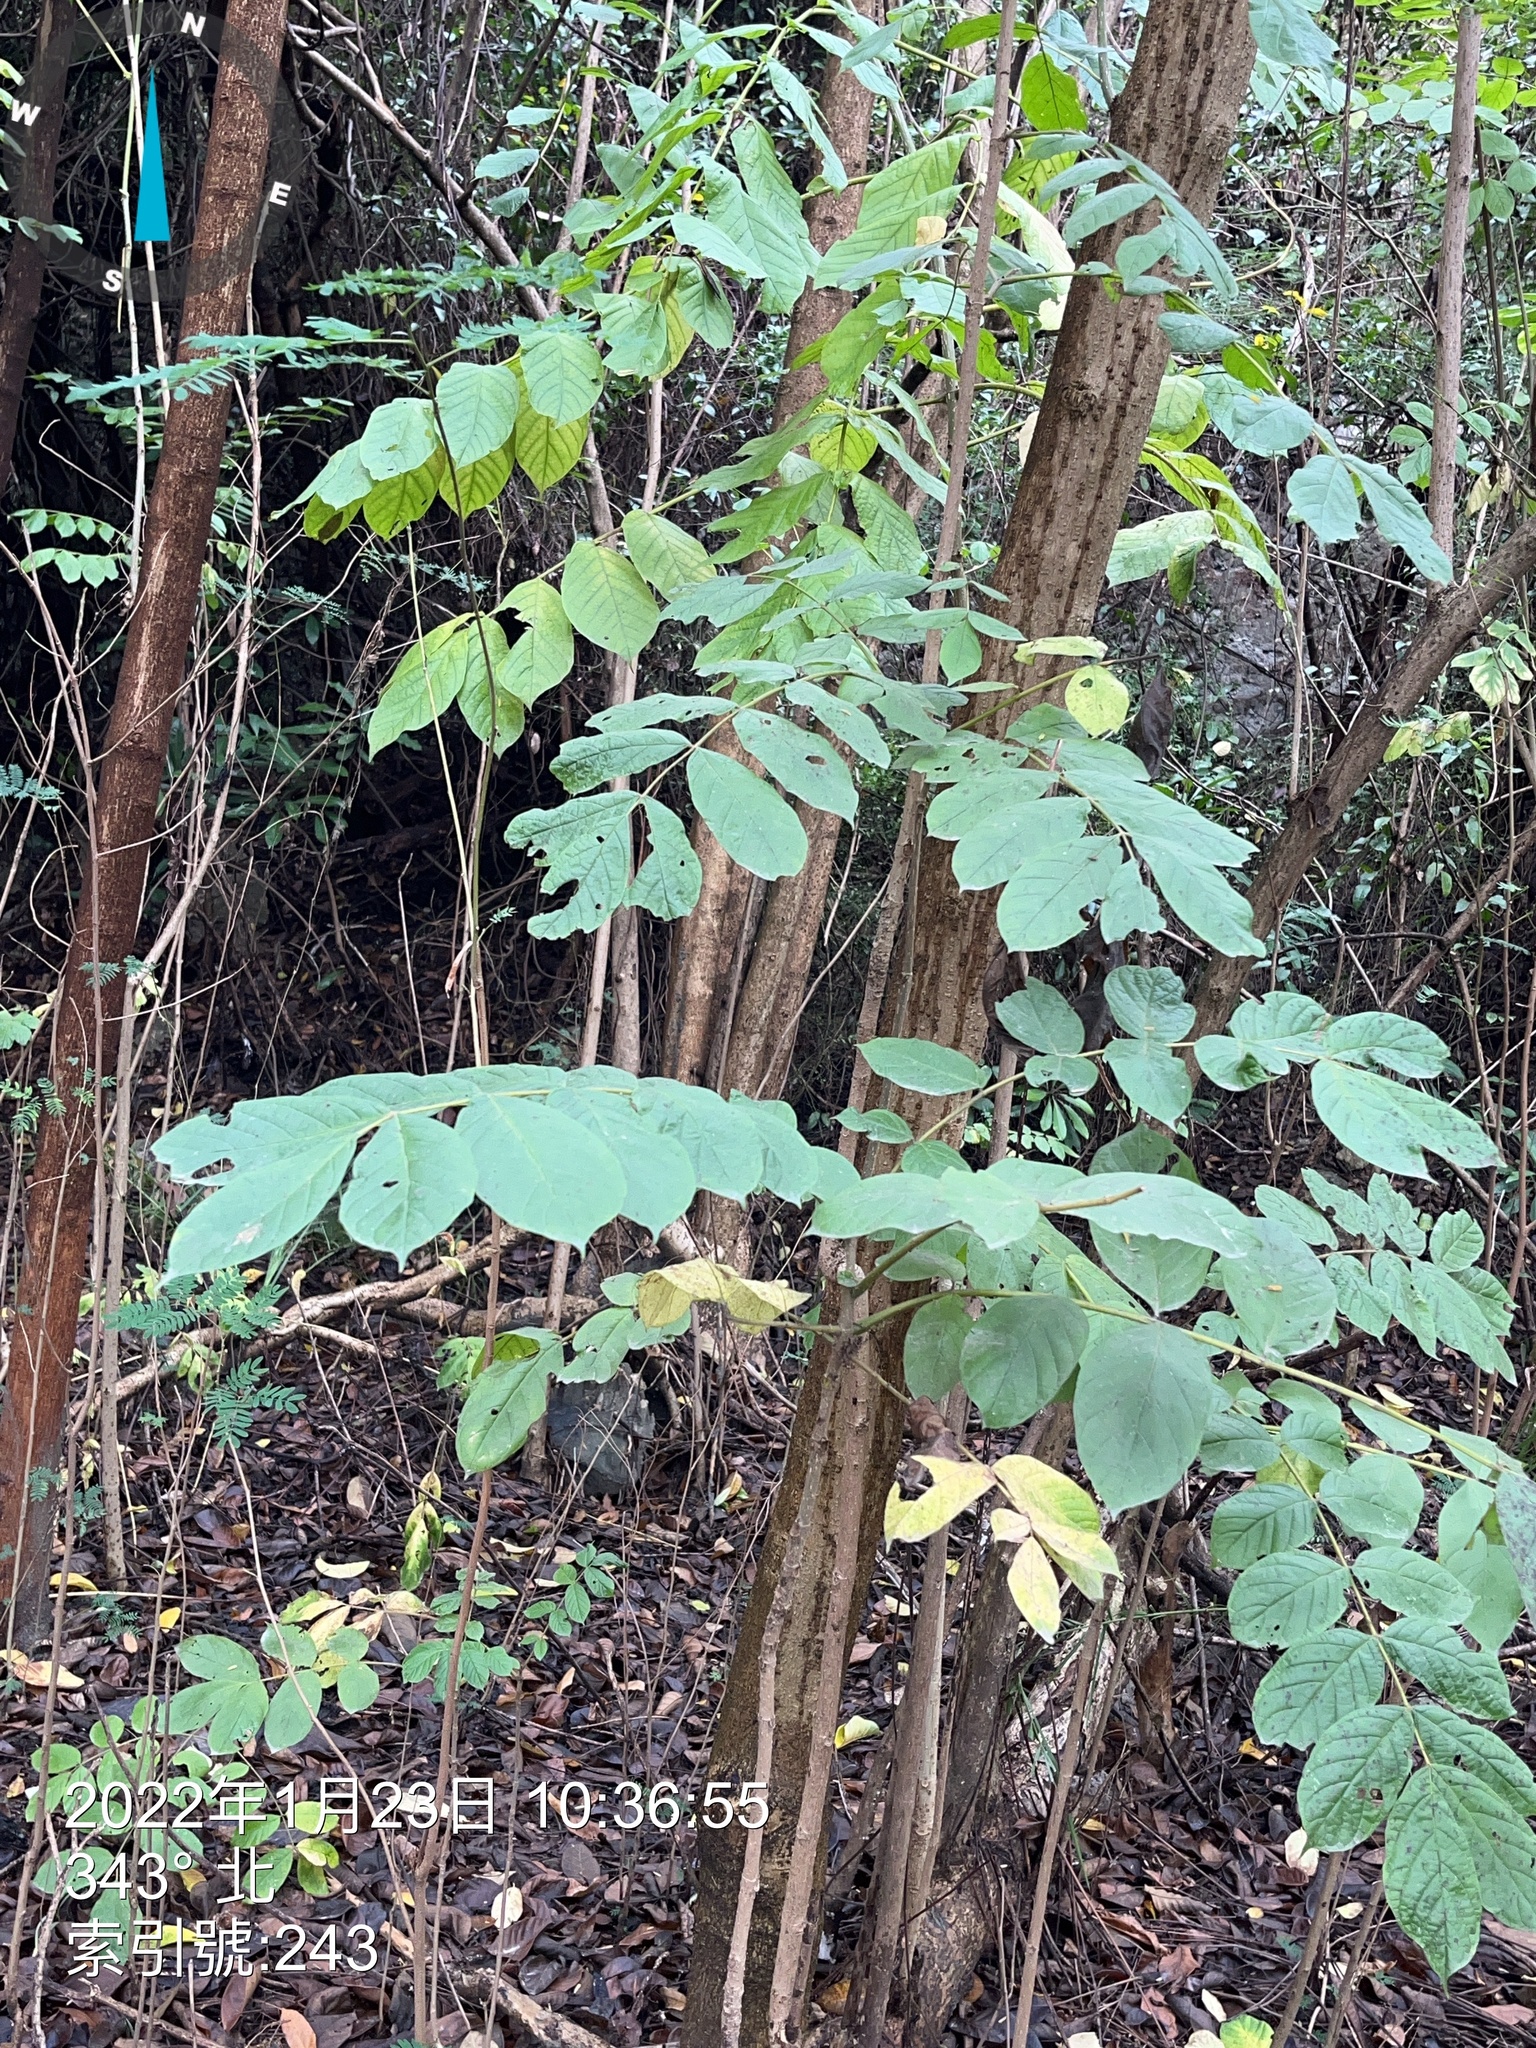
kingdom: Plantae
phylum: Tracheophyta
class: Magnoliopsida
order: Lamiales
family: Bignoniaceae
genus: Spathodea
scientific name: Spathodea campanulata
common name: African tuliptree
